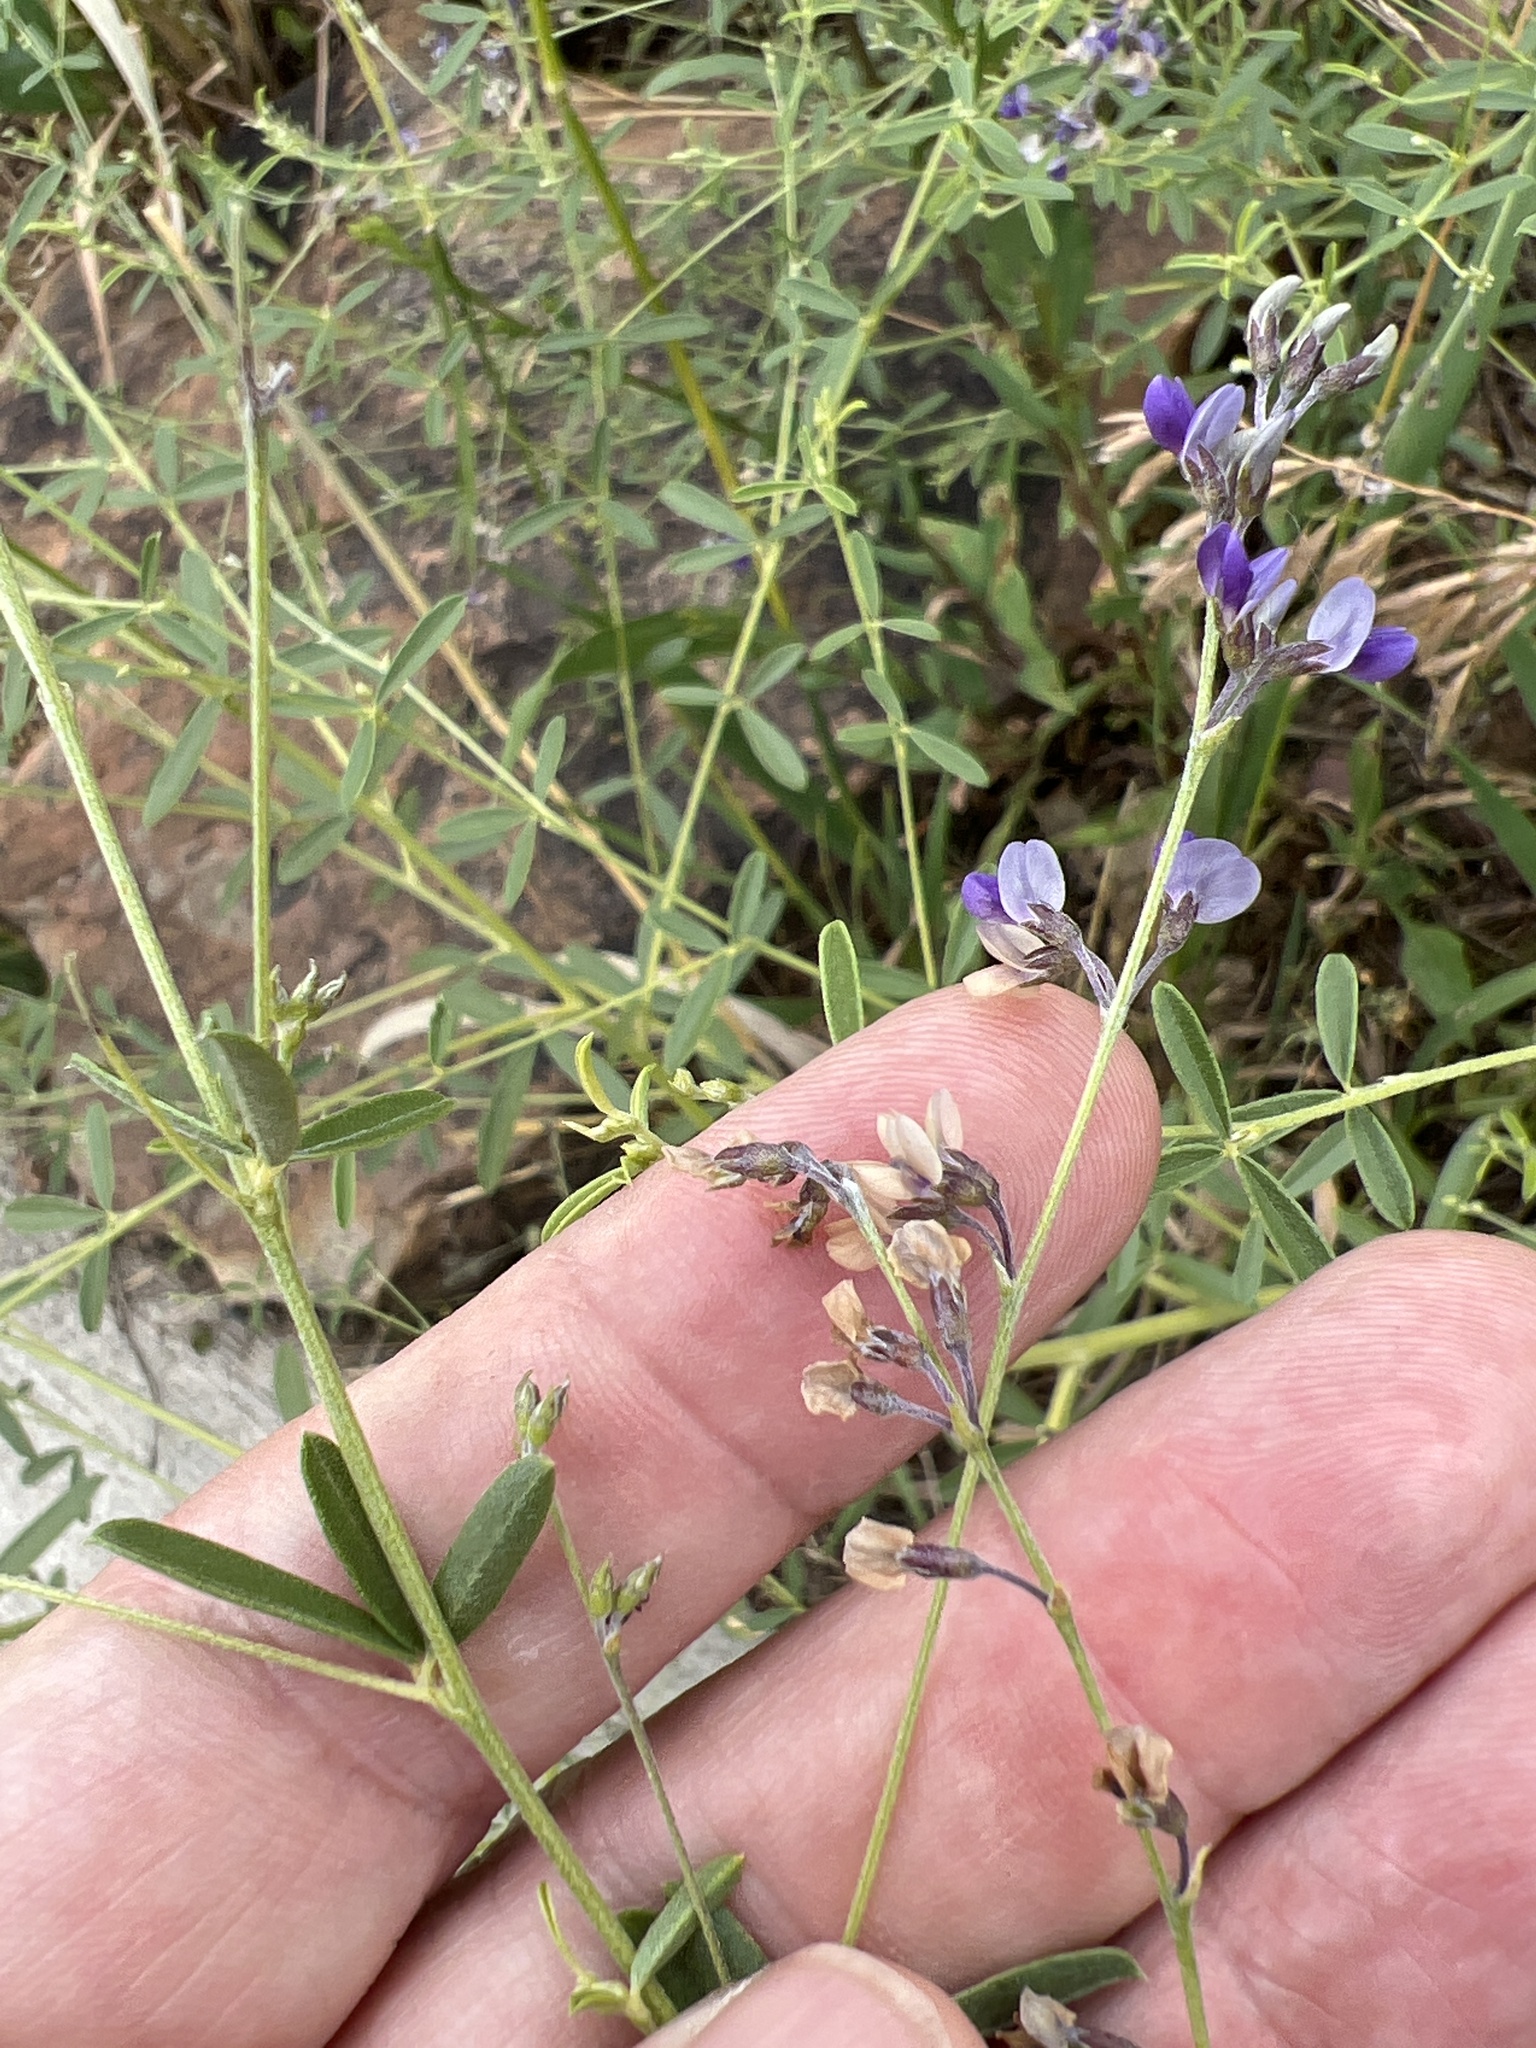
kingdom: Plantae
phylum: Tracheophyta
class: Magnoliopsida
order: Fabales
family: Fabaceae
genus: Pediomelum
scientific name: Pediomelum tenuiflorum
